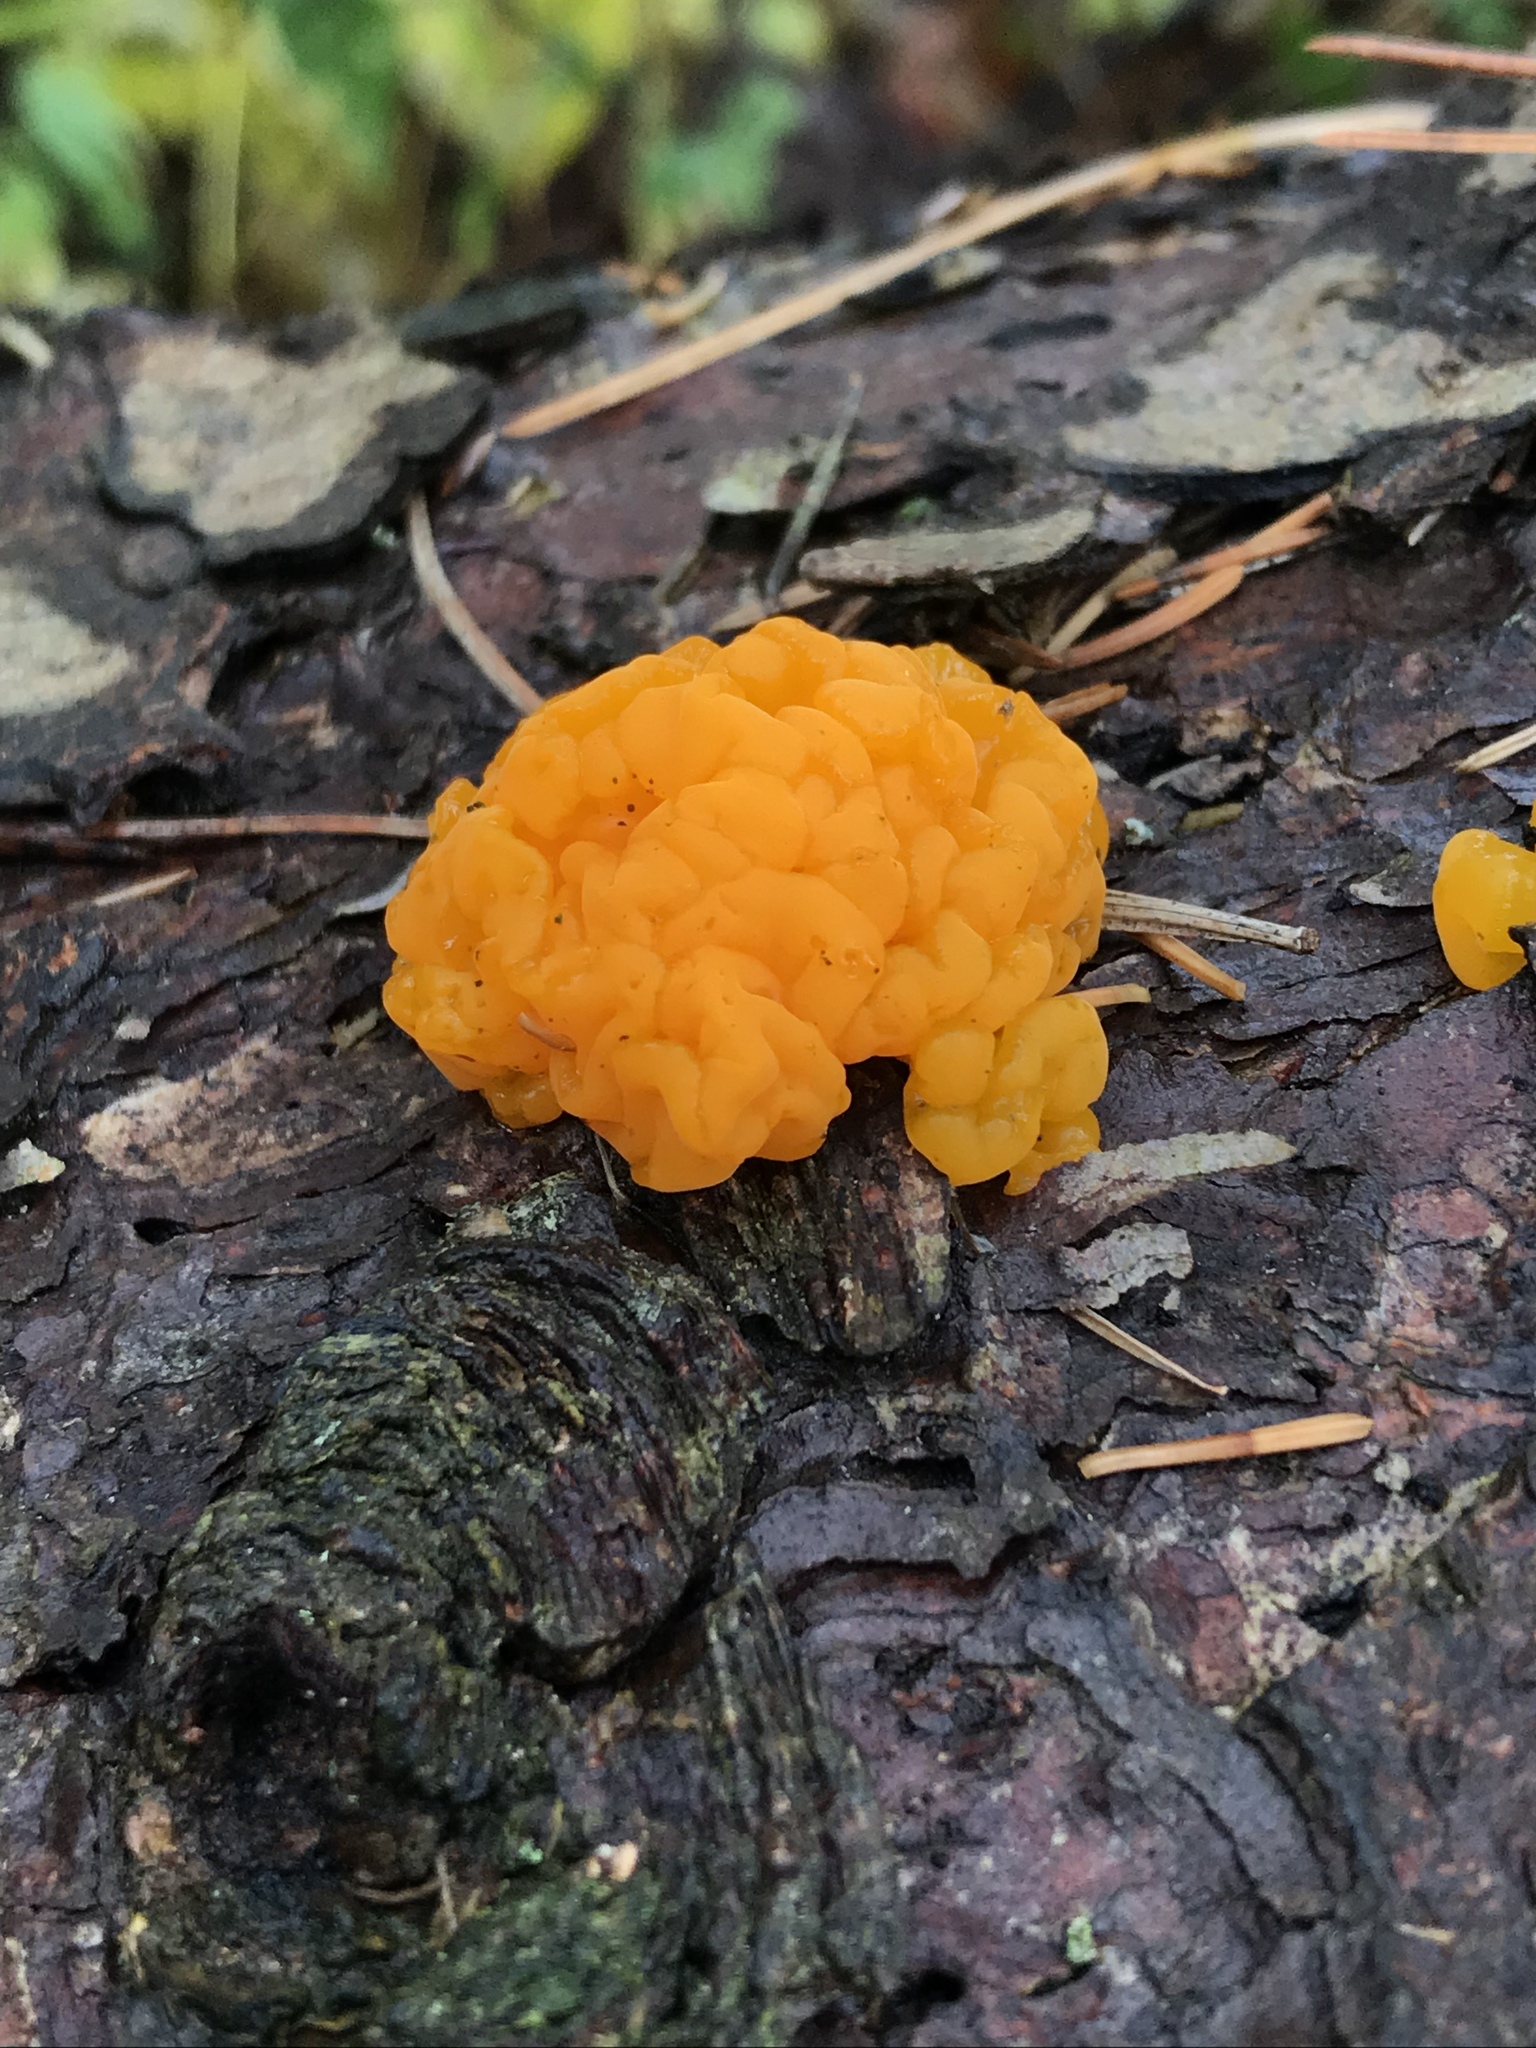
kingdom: Fungi
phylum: Basidiomycota
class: Dacrymycetes
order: Dacrymycetales
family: Dacrymycetaceae
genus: Dacrymyces
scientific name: Dacrymyces chrysospermus
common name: Orange jelly spot
